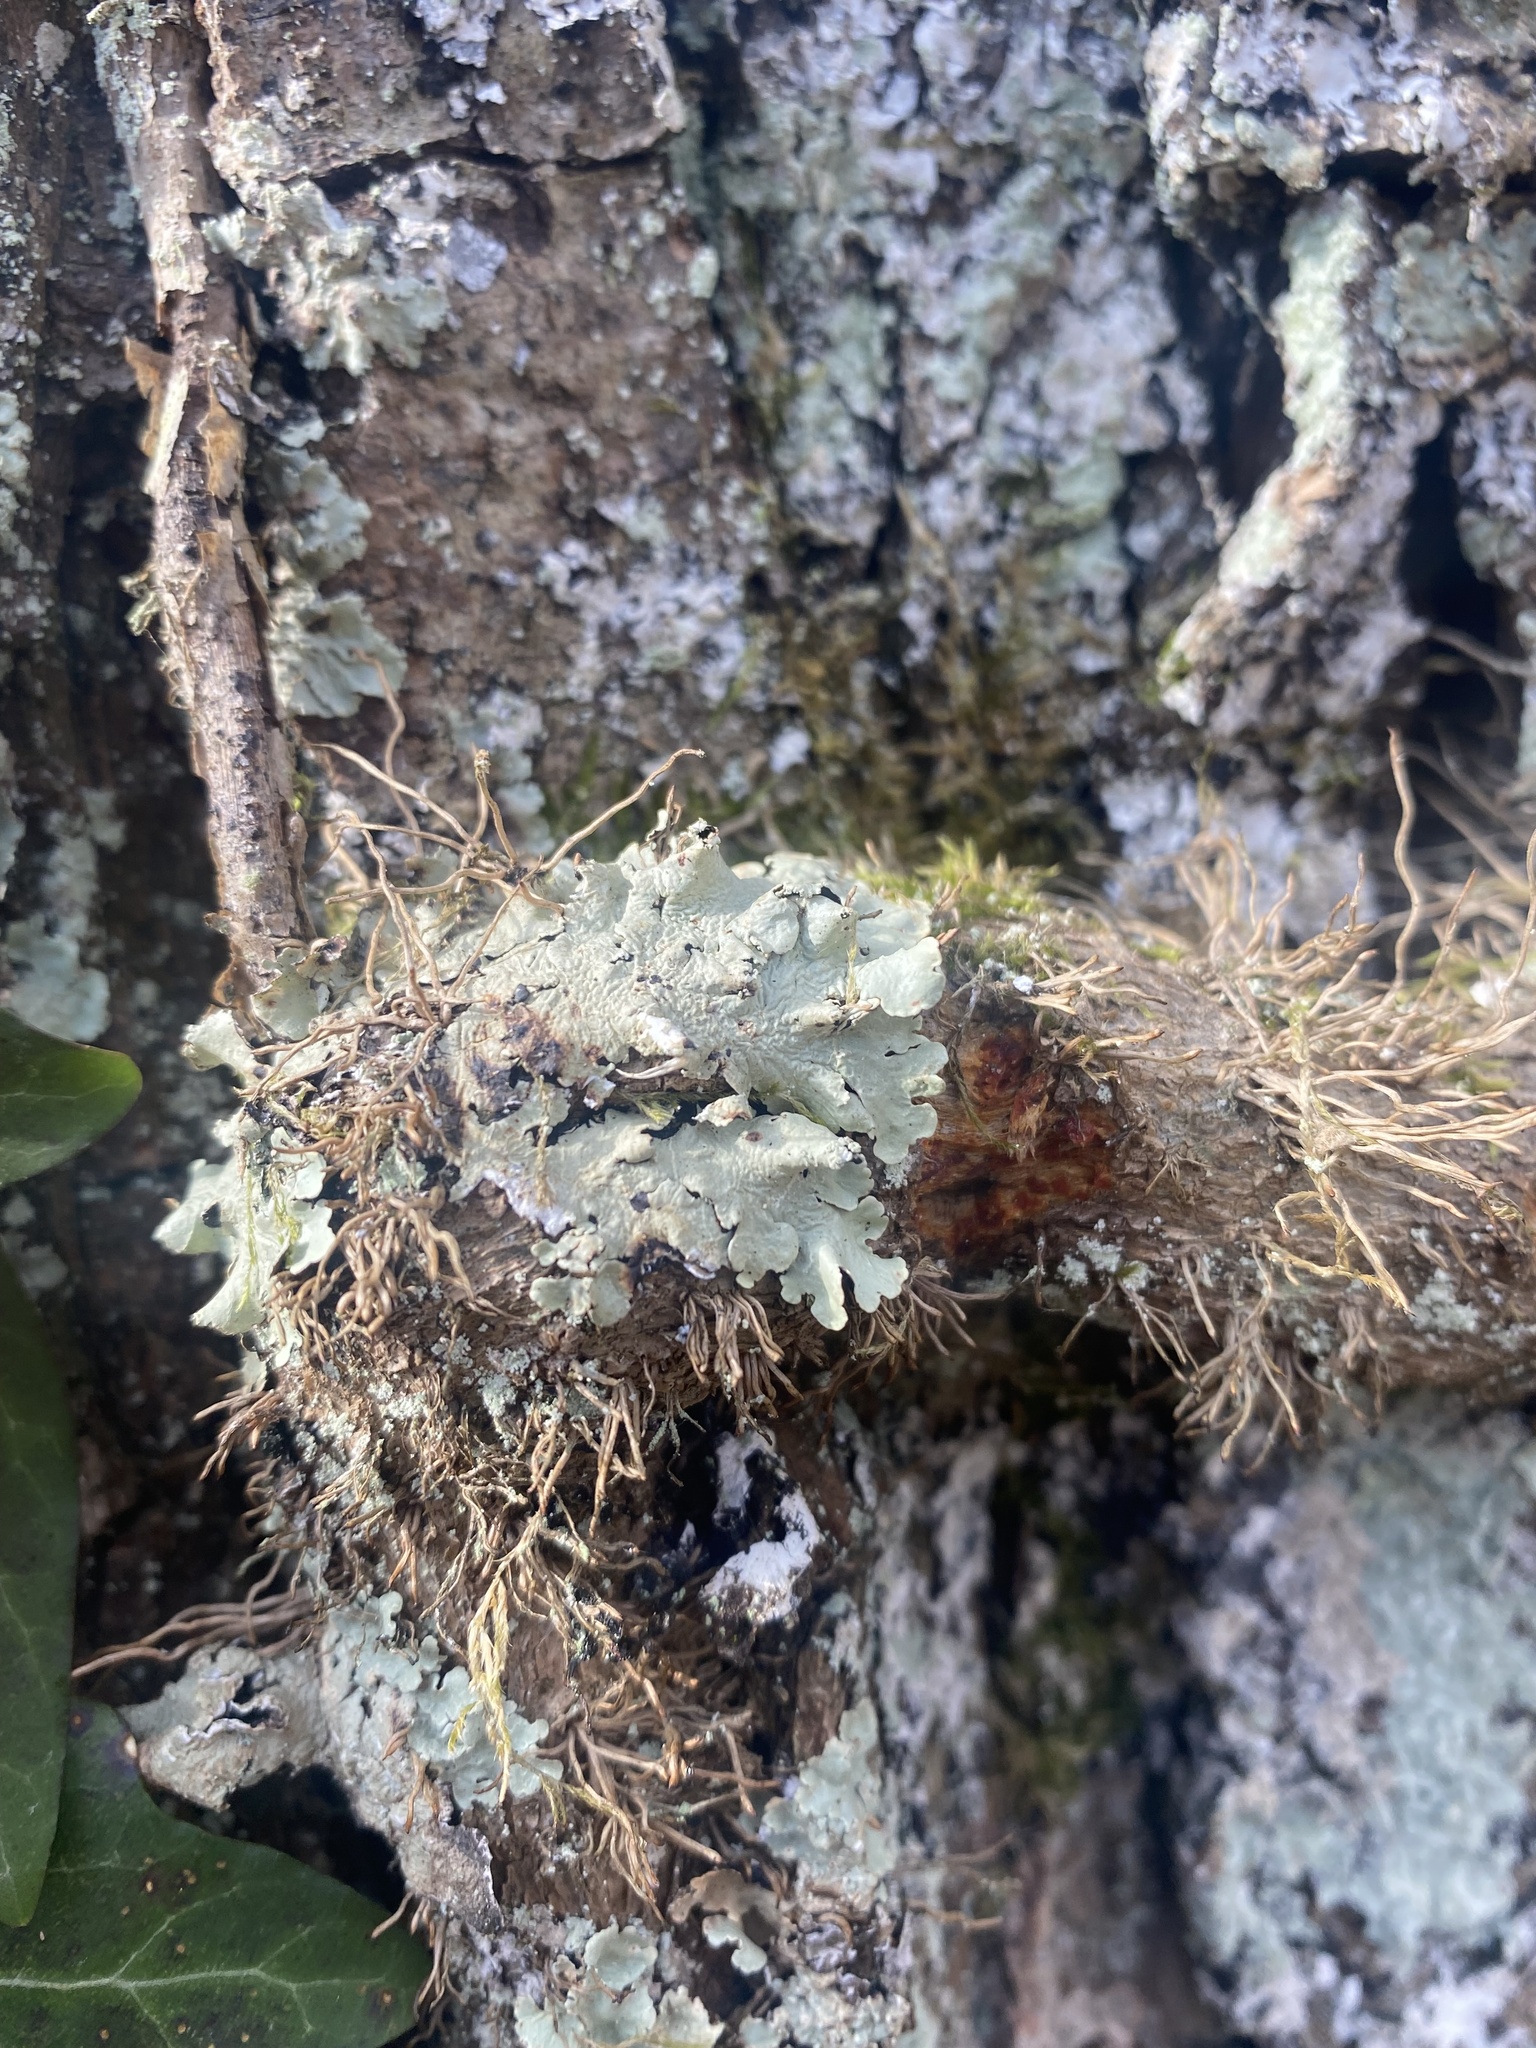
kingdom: Fungi
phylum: Ascomycota
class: Lecanoromycetes
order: Lecanorales
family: Parmeliaceae
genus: Flavoparmelia
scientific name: Flavoparmelia caperata
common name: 40-mile per hour lichen
